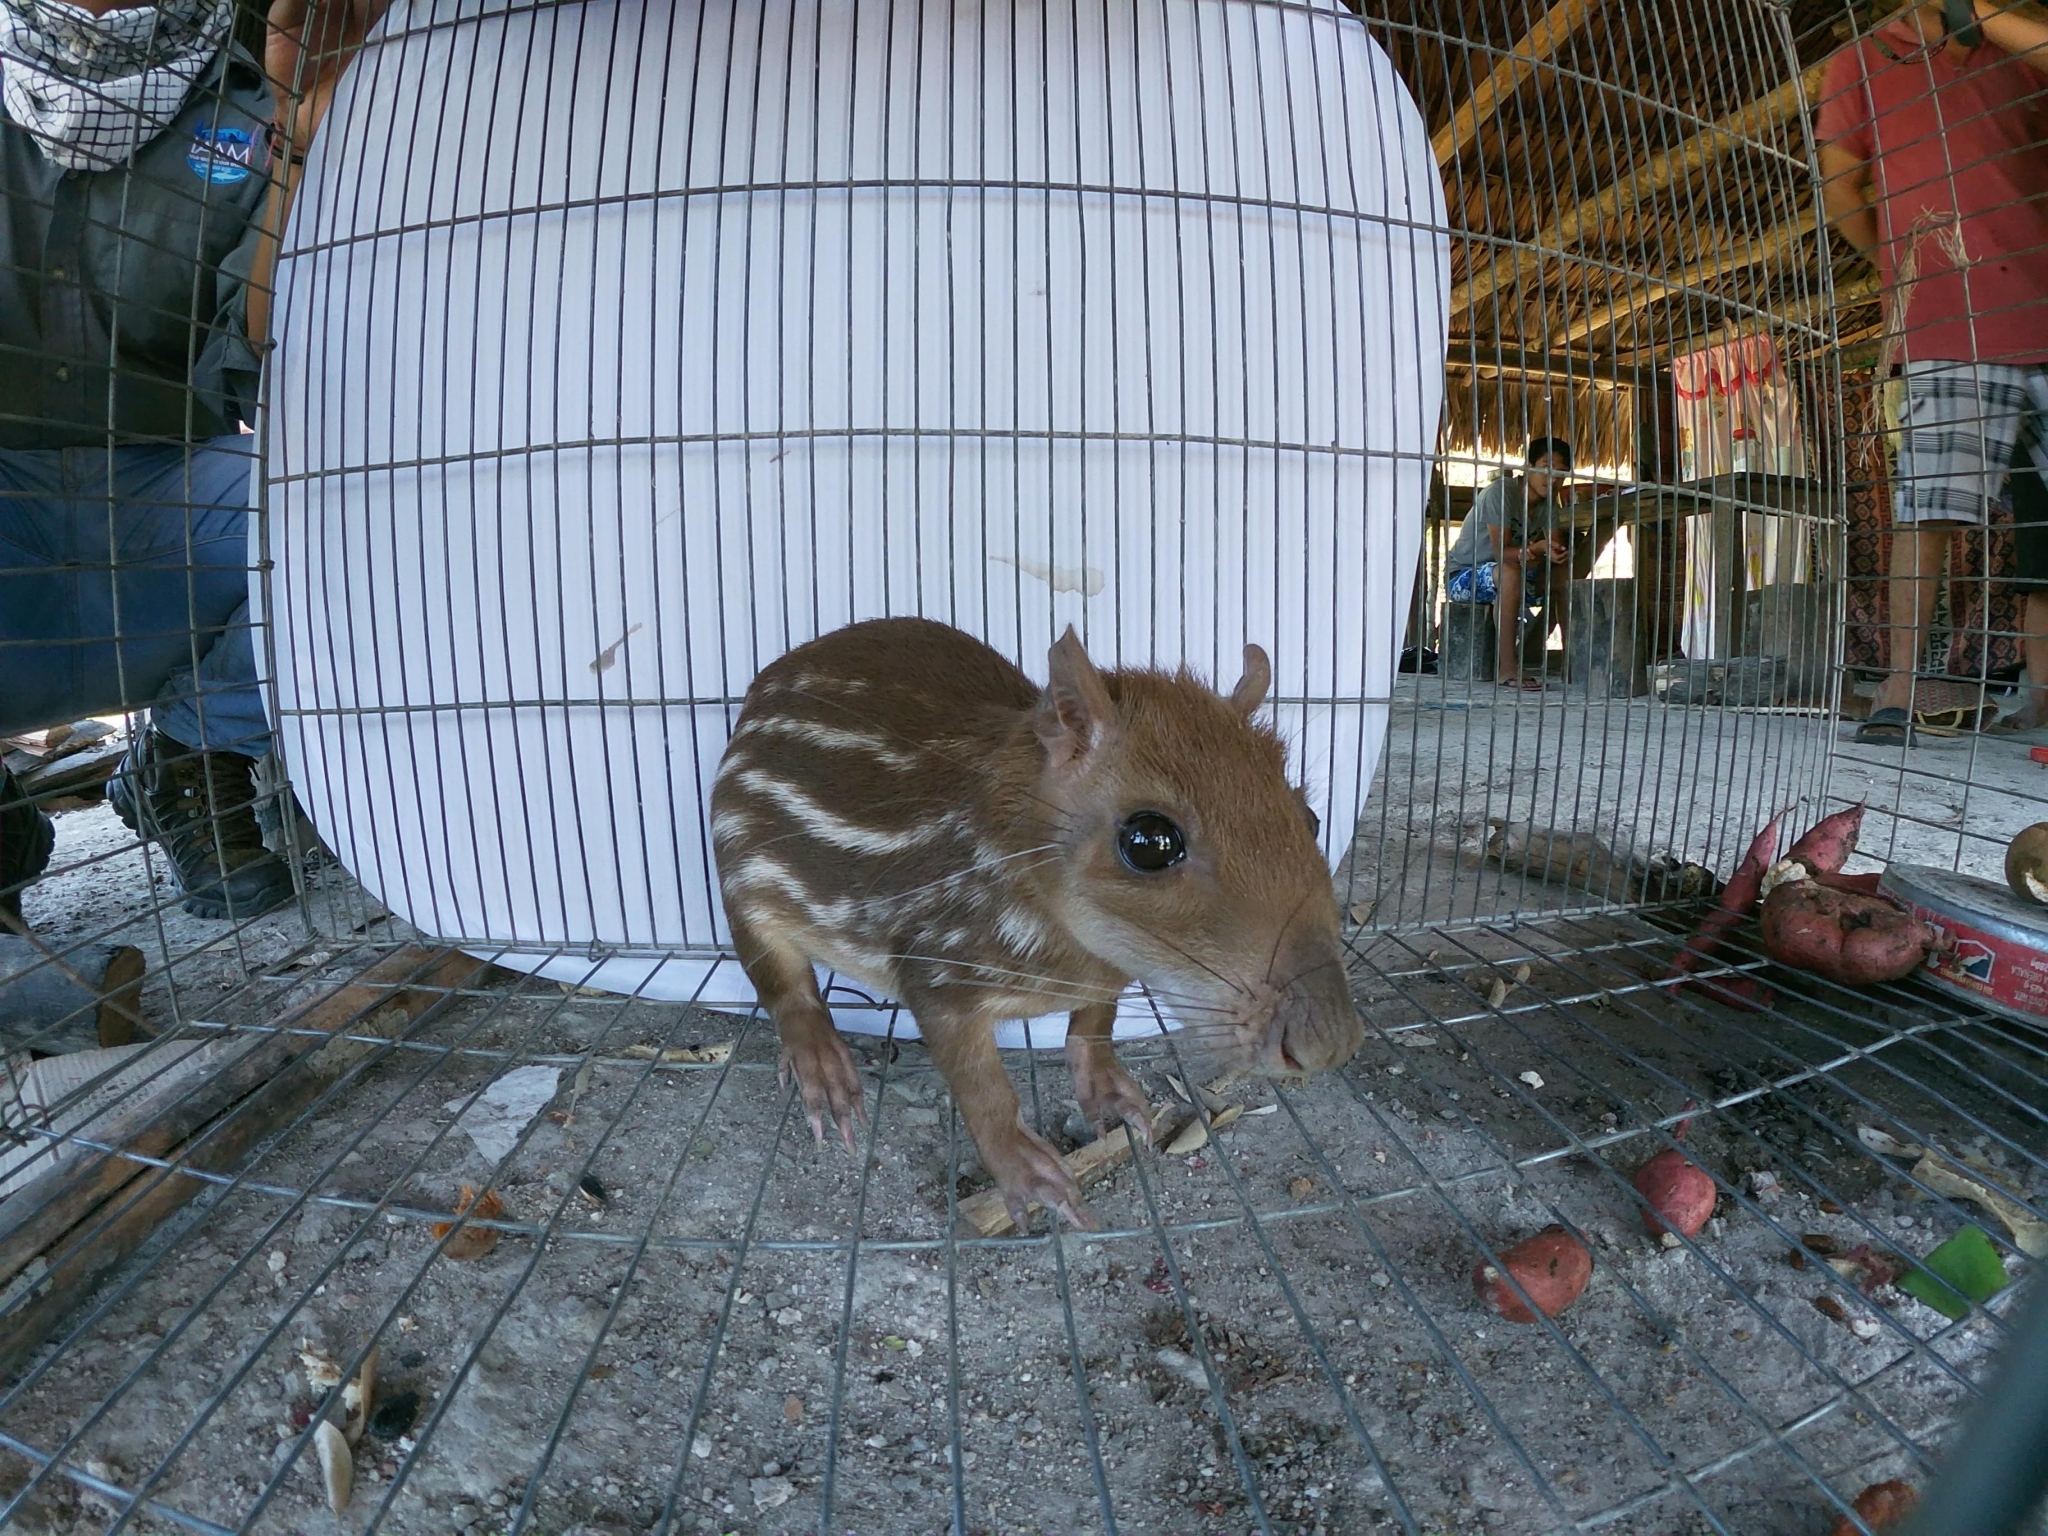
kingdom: Animalia
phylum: Chordata
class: Mammalia
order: Rodentia
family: Cuniculidae
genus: Cuniculus
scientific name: Cuniculus paca
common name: Lowland paca
